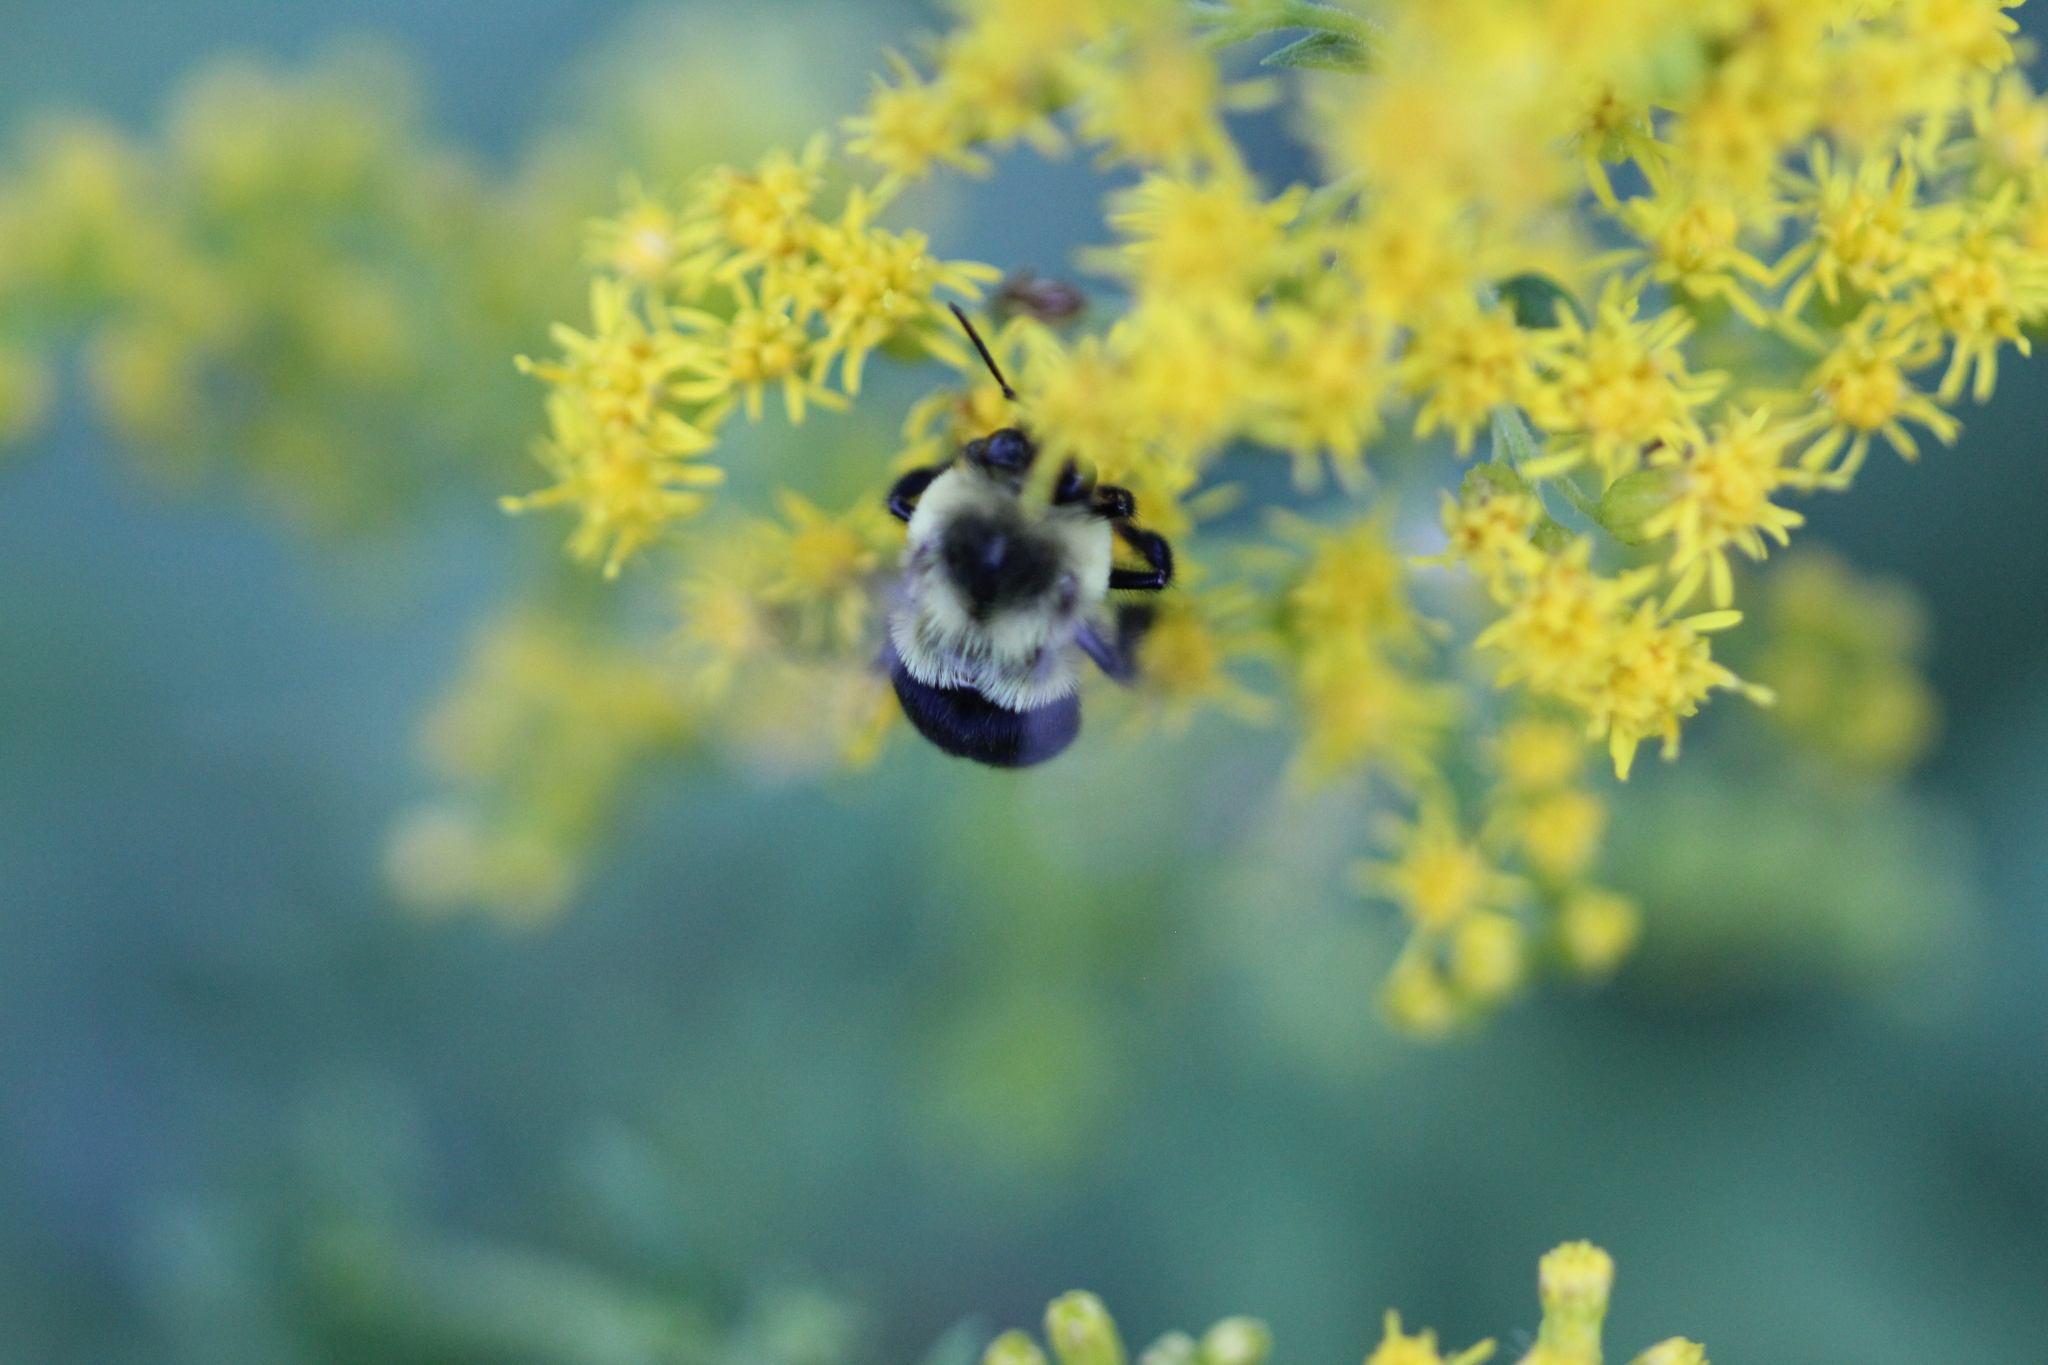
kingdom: Animalia
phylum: Arthropoda
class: Insecta
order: Hymenoptera
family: Apidae
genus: Bombus
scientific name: Bombus impatiens
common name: Common eastern bumble bee
